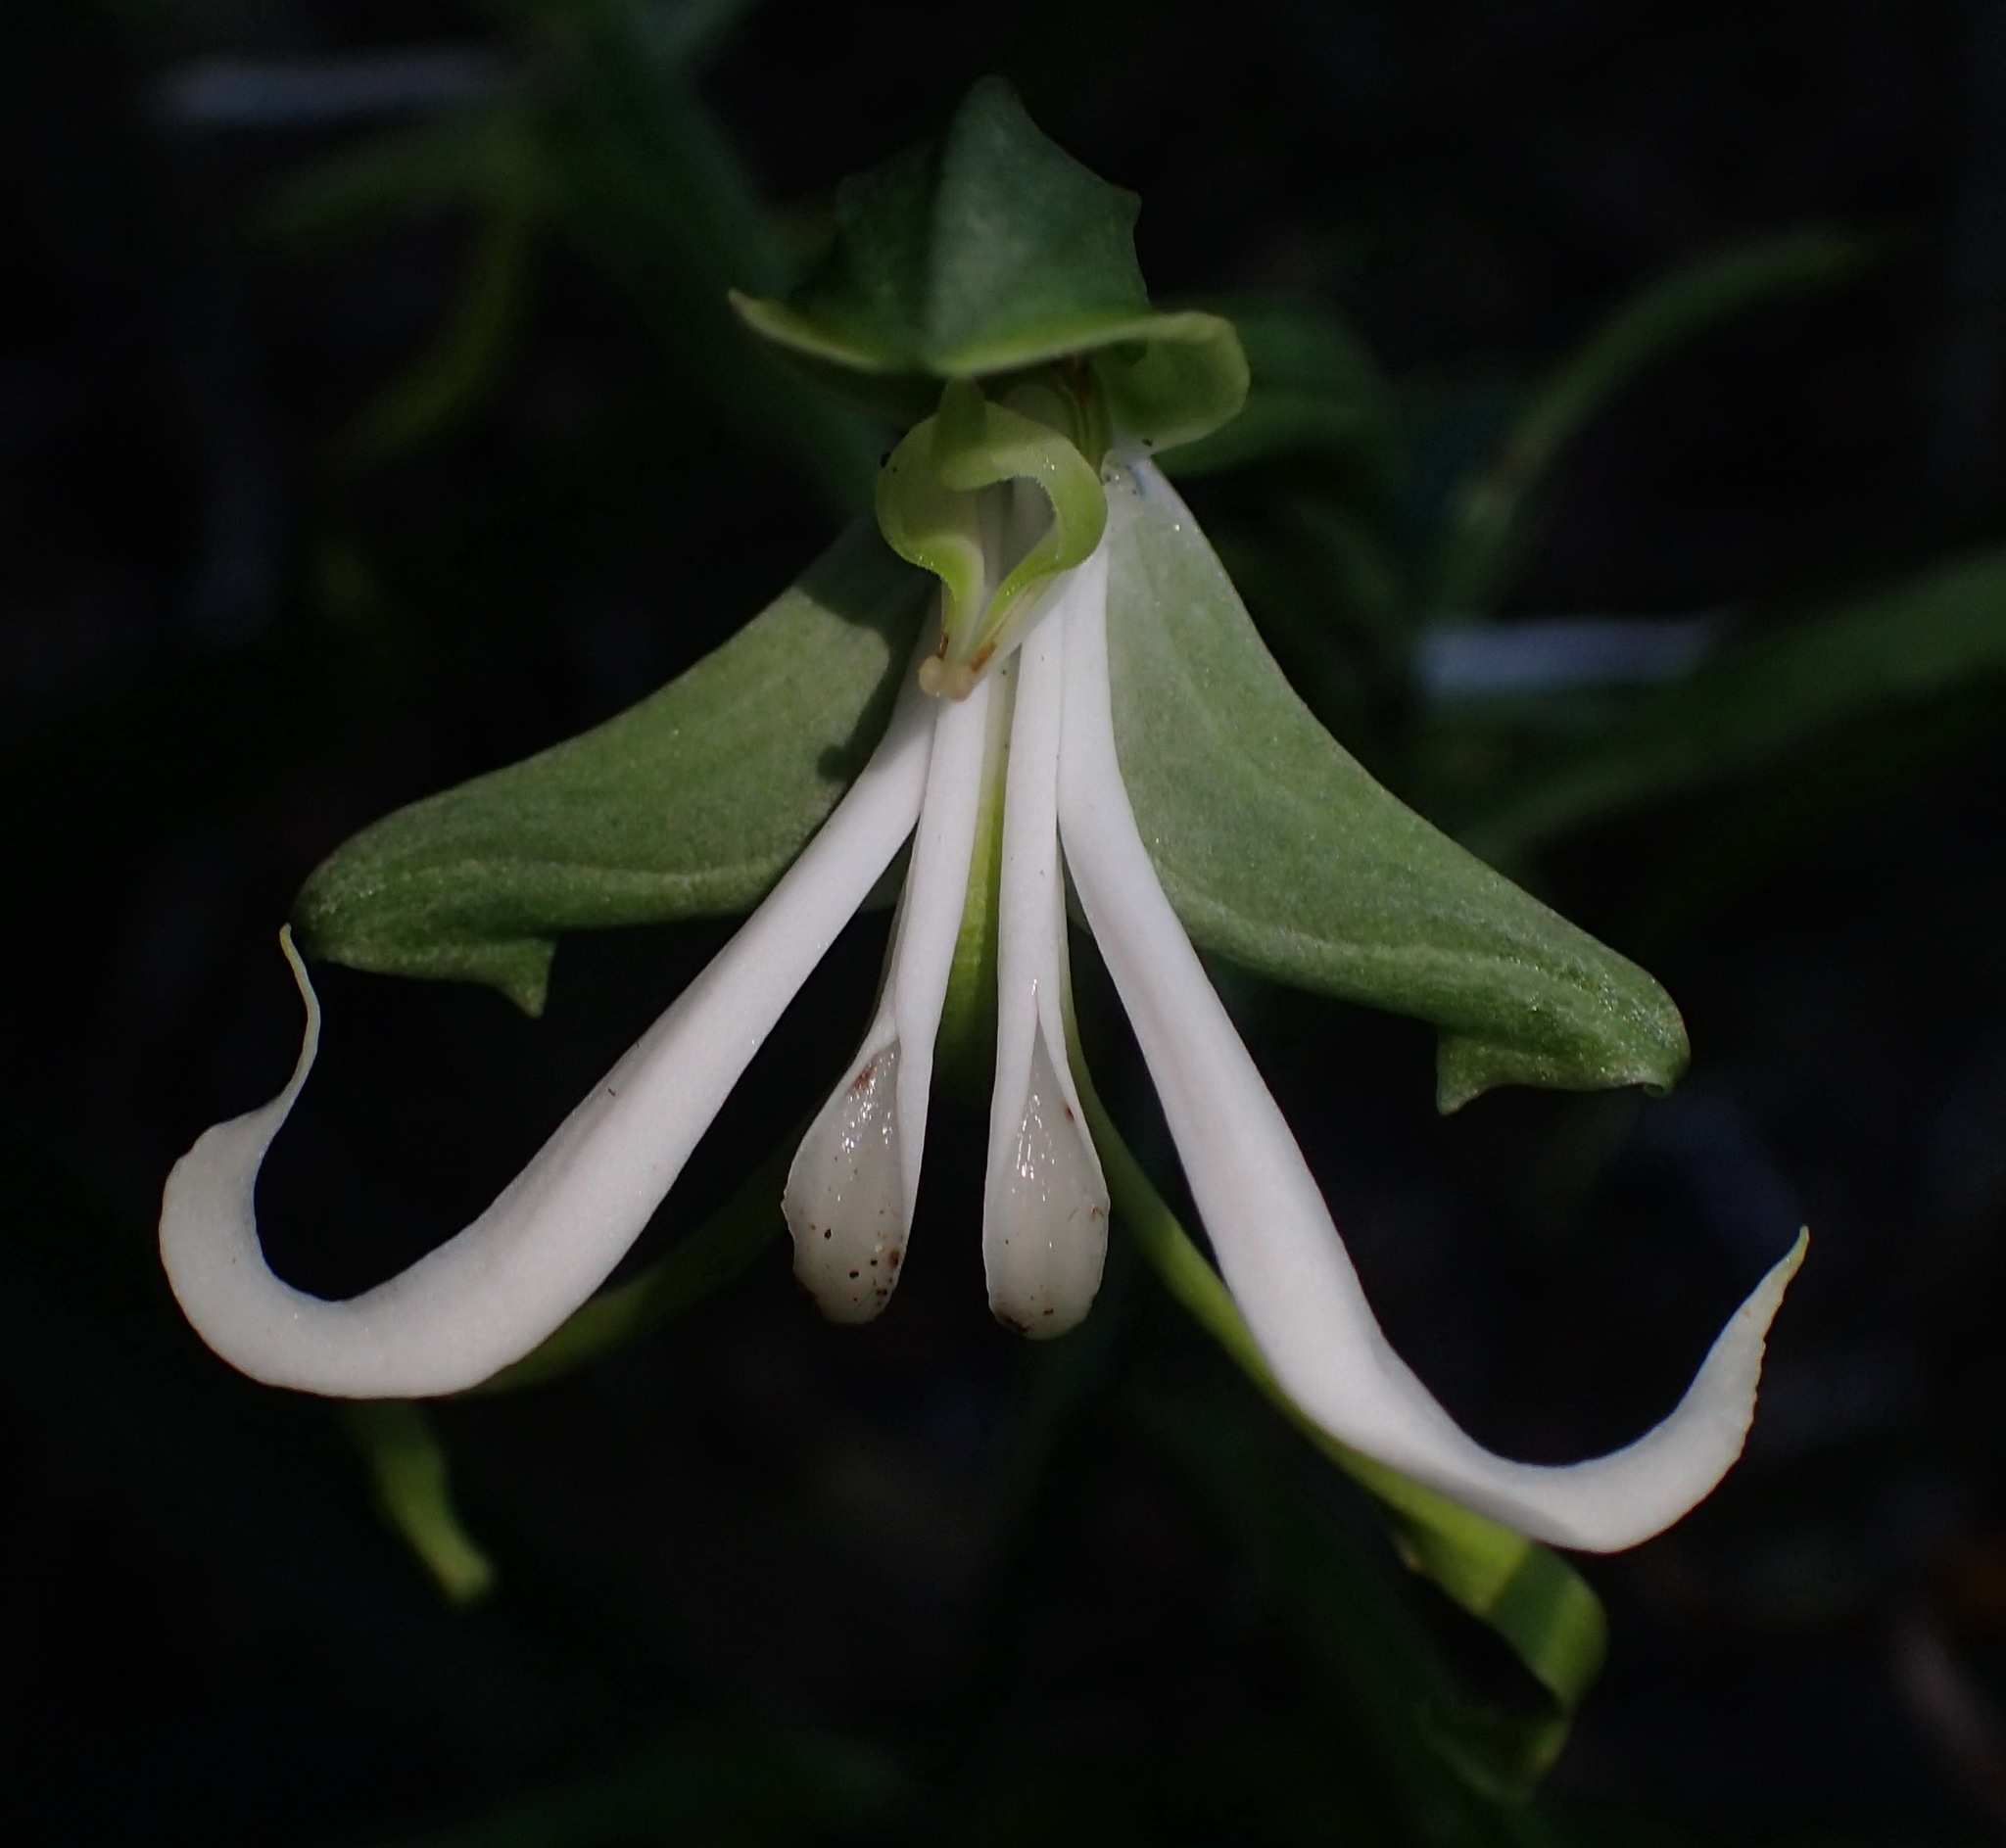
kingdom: Plantae
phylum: Tracheophyta
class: Liliopsida
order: Asparagales
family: Orchidaceae
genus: Bonatea
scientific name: Bonatea speciosa
